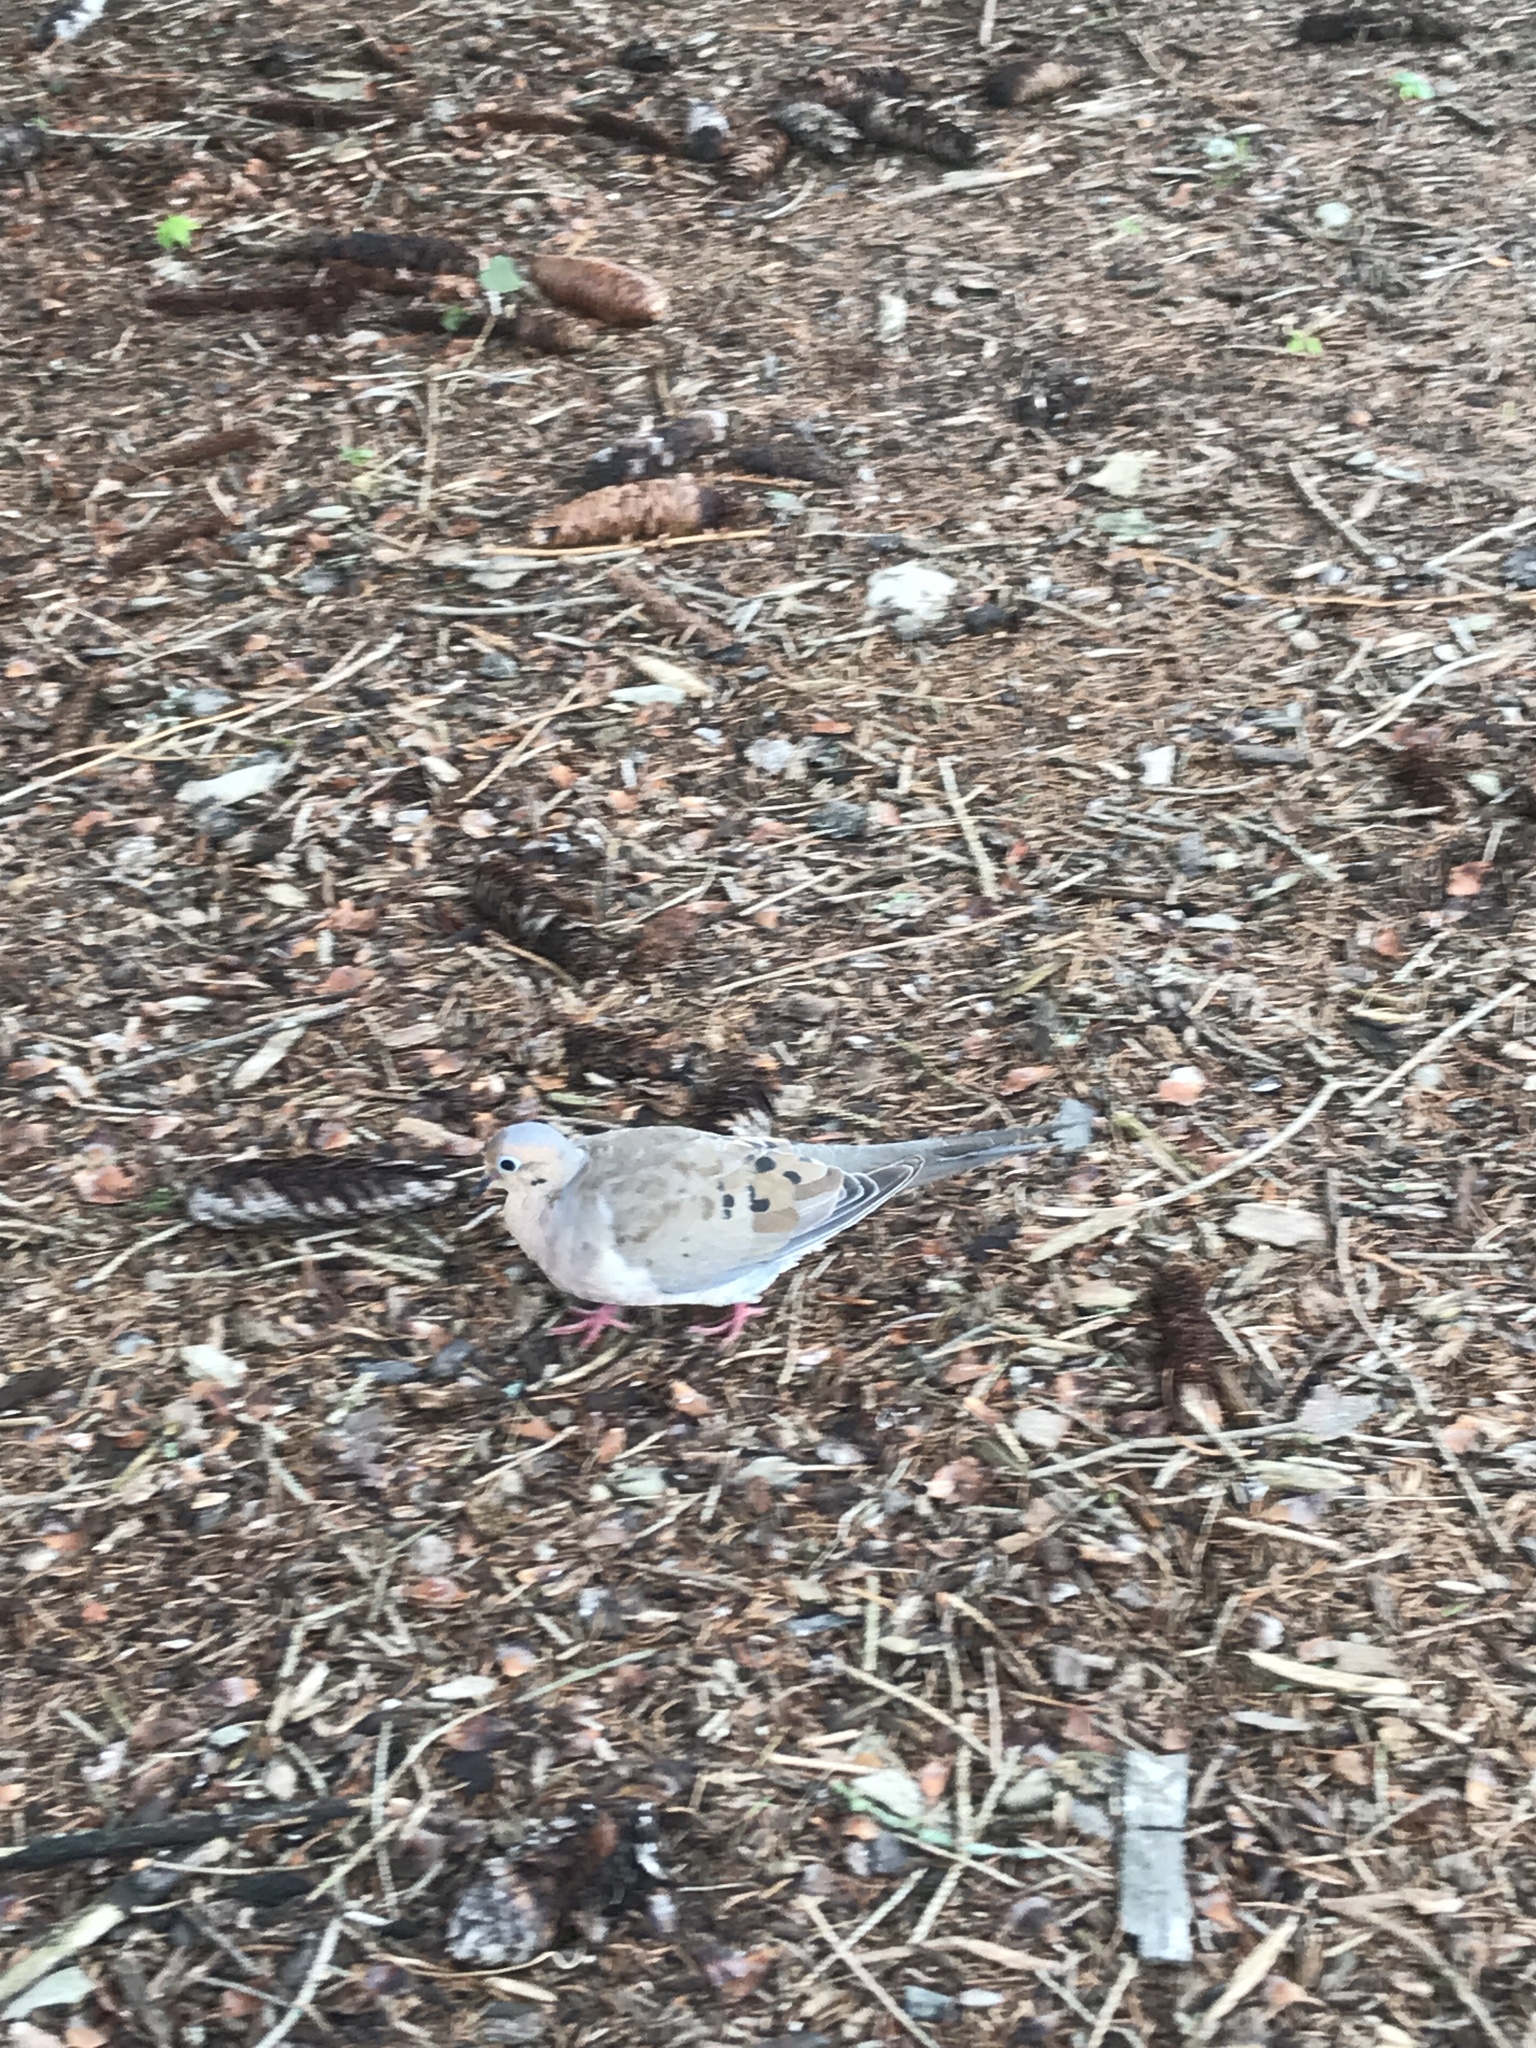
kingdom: Animalia
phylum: Chordata
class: Aves
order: Columbiformes
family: Columbidae
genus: Zenaida
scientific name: Zenaida macroura
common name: Mourning dove
